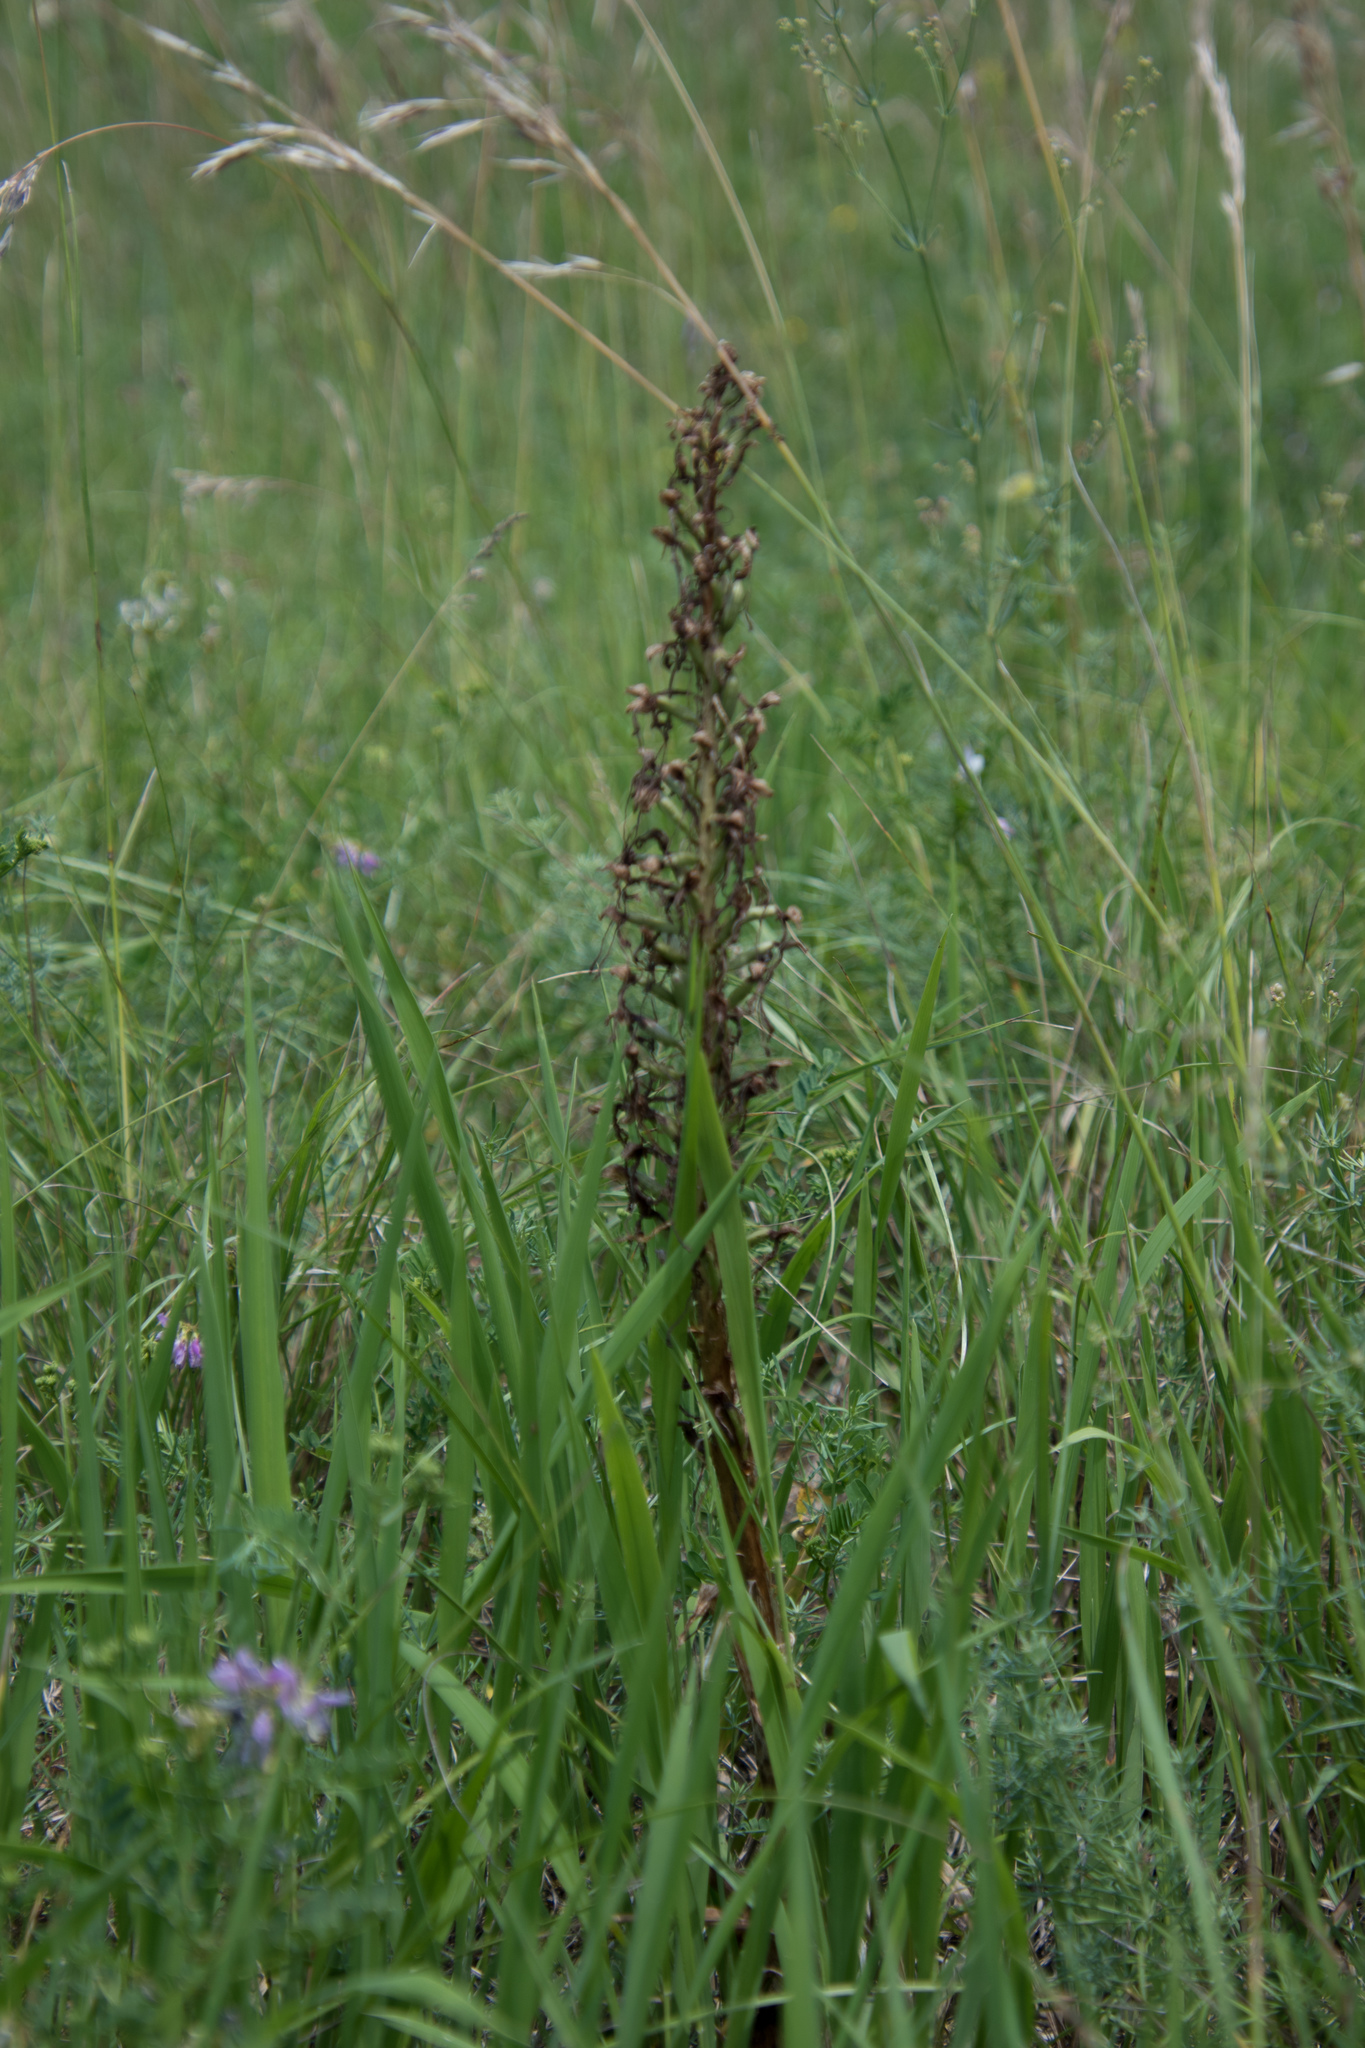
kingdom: Plantae
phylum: Tracheophyta
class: Liliopsida
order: Asparagales
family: Orchidaceae
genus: Himantoglossum
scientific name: Himantoglossum hircinum
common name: Lizard orchid
